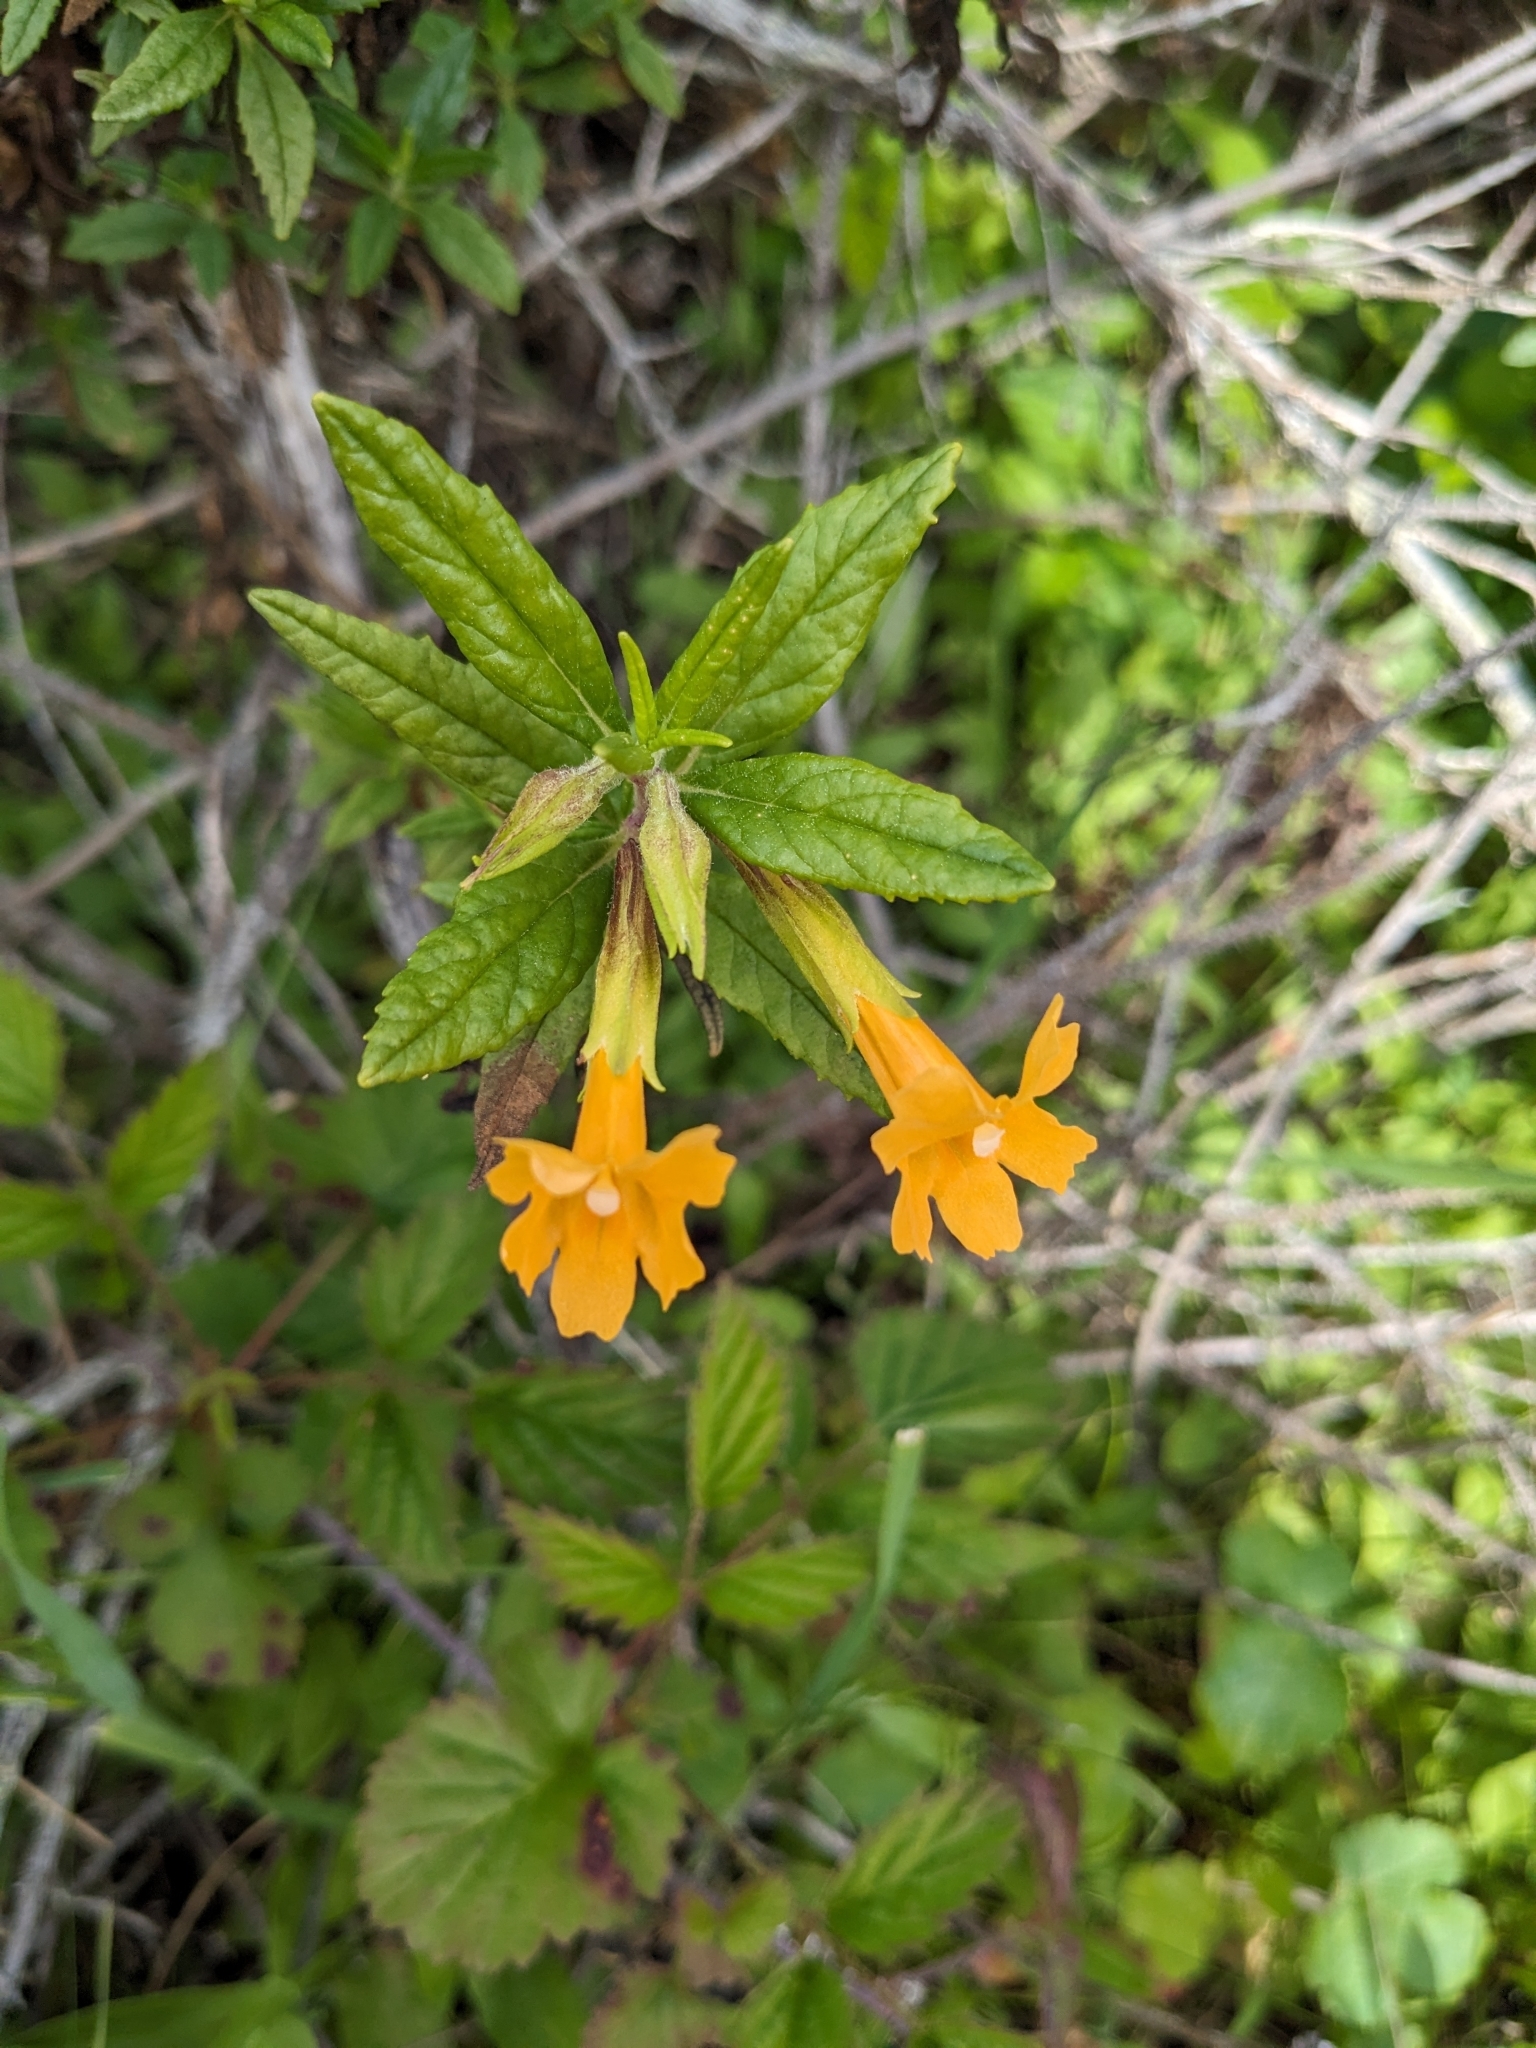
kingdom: Plantae
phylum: Tracheophyta
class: Magnoliopsida
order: Lamiales
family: Phrymaceae
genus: Diplacus
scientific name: Diplacus aurantiacus
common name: Bush monkey-flower
